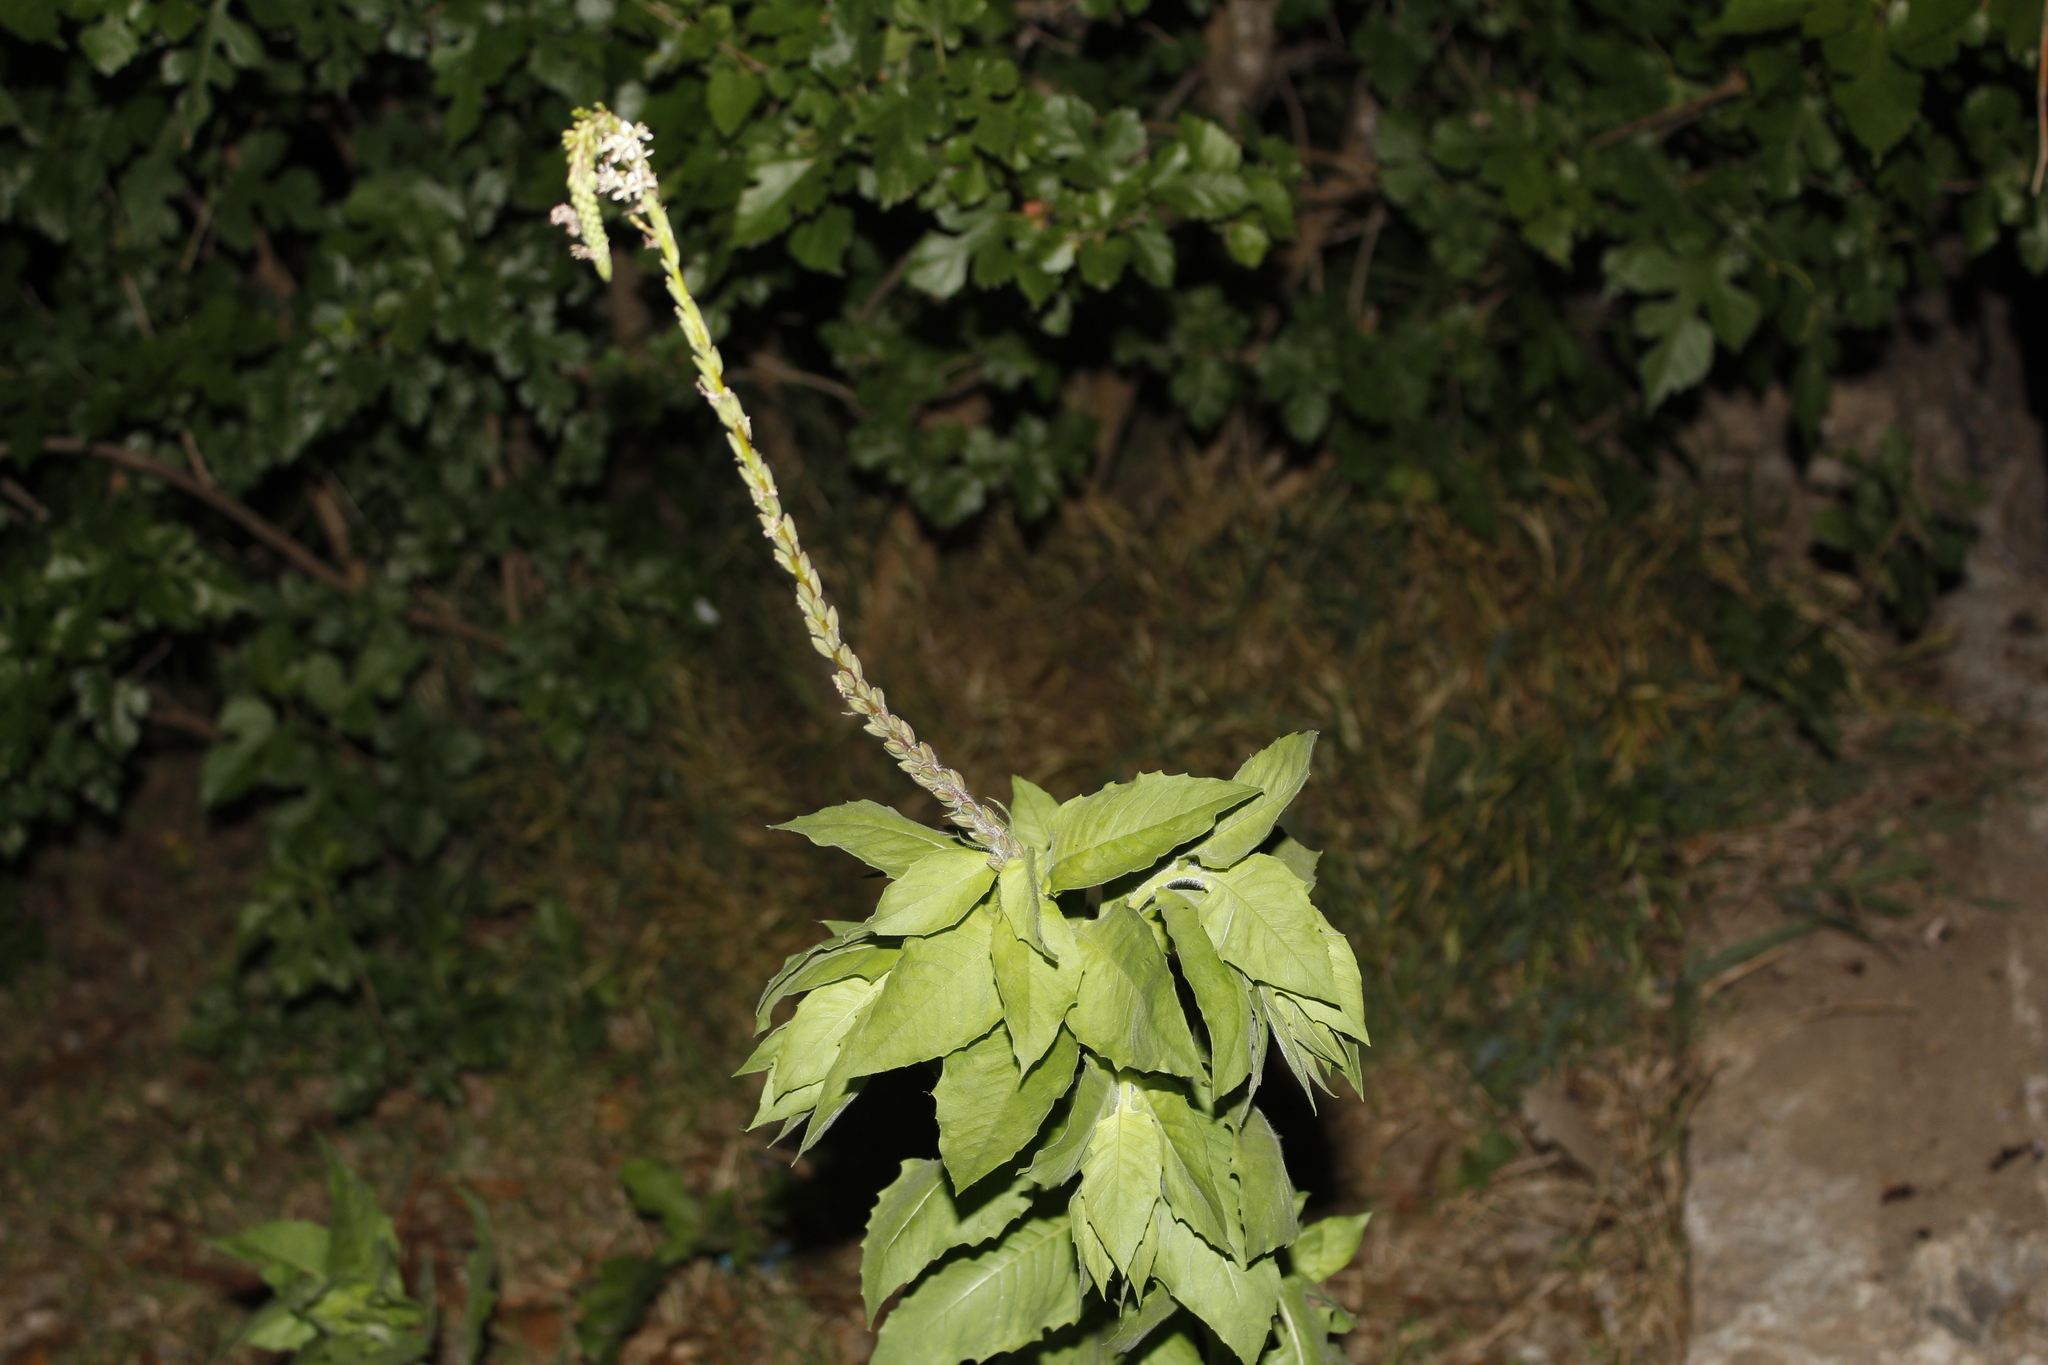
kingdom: Plantae
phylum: Tracheophyta
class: Magnoliopsida
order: Myrtales
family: Onagraceae
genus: Oenothera
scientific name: Oenothera curtiflora
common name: Velvetweed
